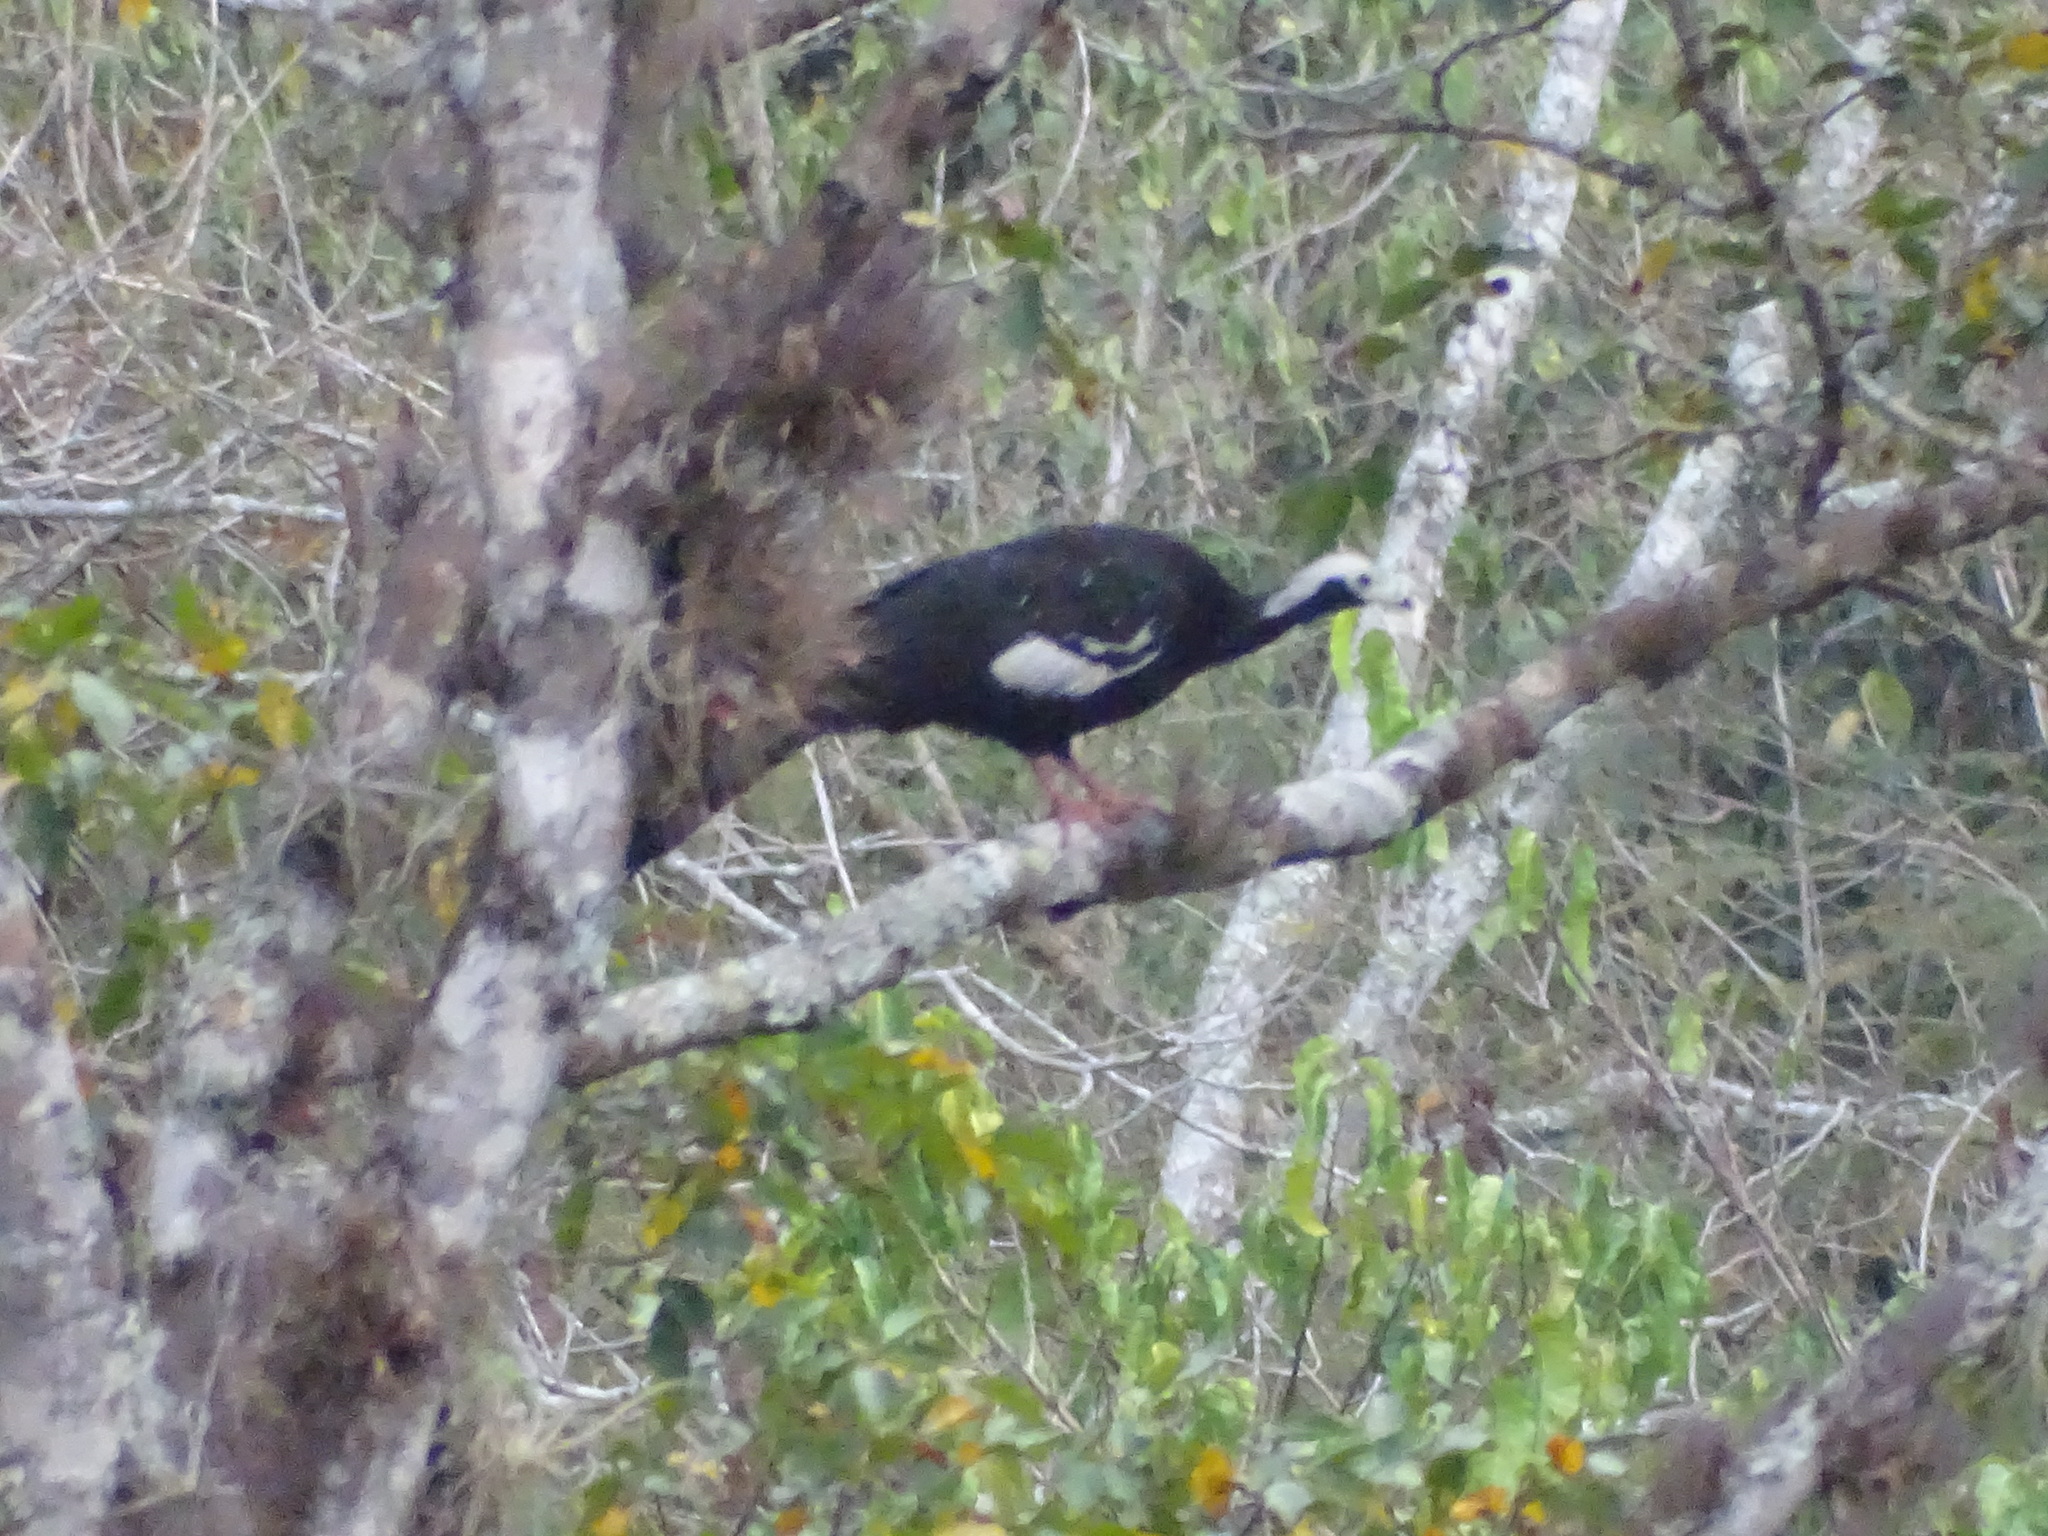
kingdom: Animalia
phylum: Chordata
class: Aves
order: Galliformes
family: Cracidae
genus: Pipile
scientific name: Pipile cumanensis
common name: Blue-throated piping-guan
